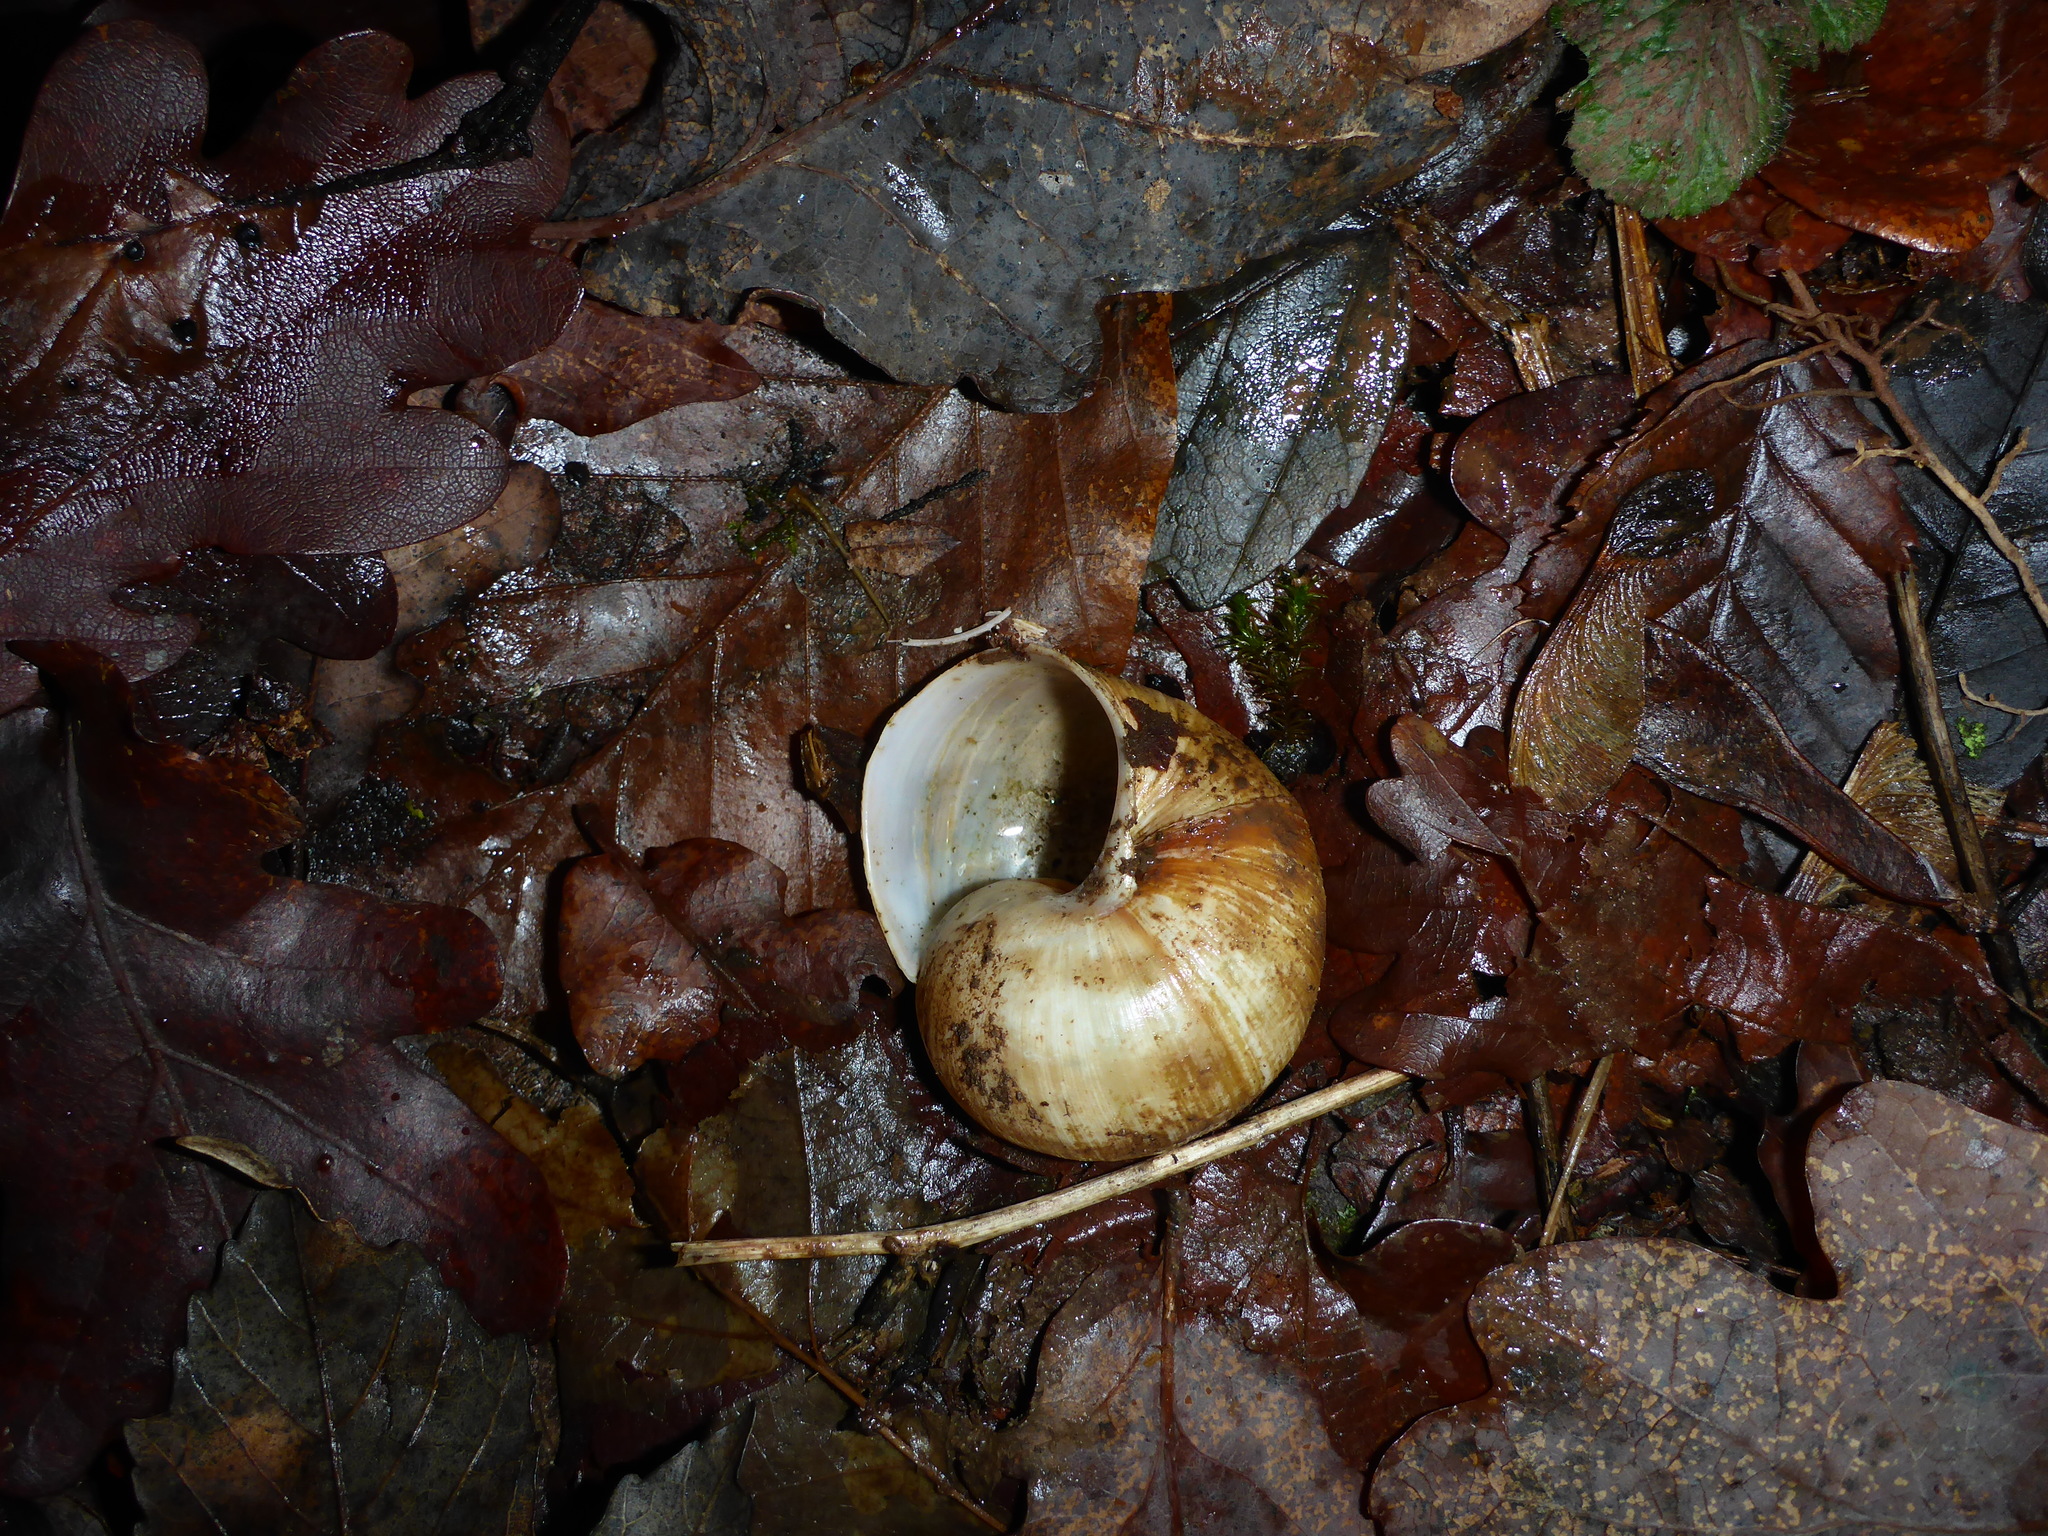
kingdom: Animalia
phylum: Mollusca
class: Gastropoda
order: Stylommatophora
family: Helicidae
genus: Helix
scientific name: Helix pomatia
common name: Roman snail
